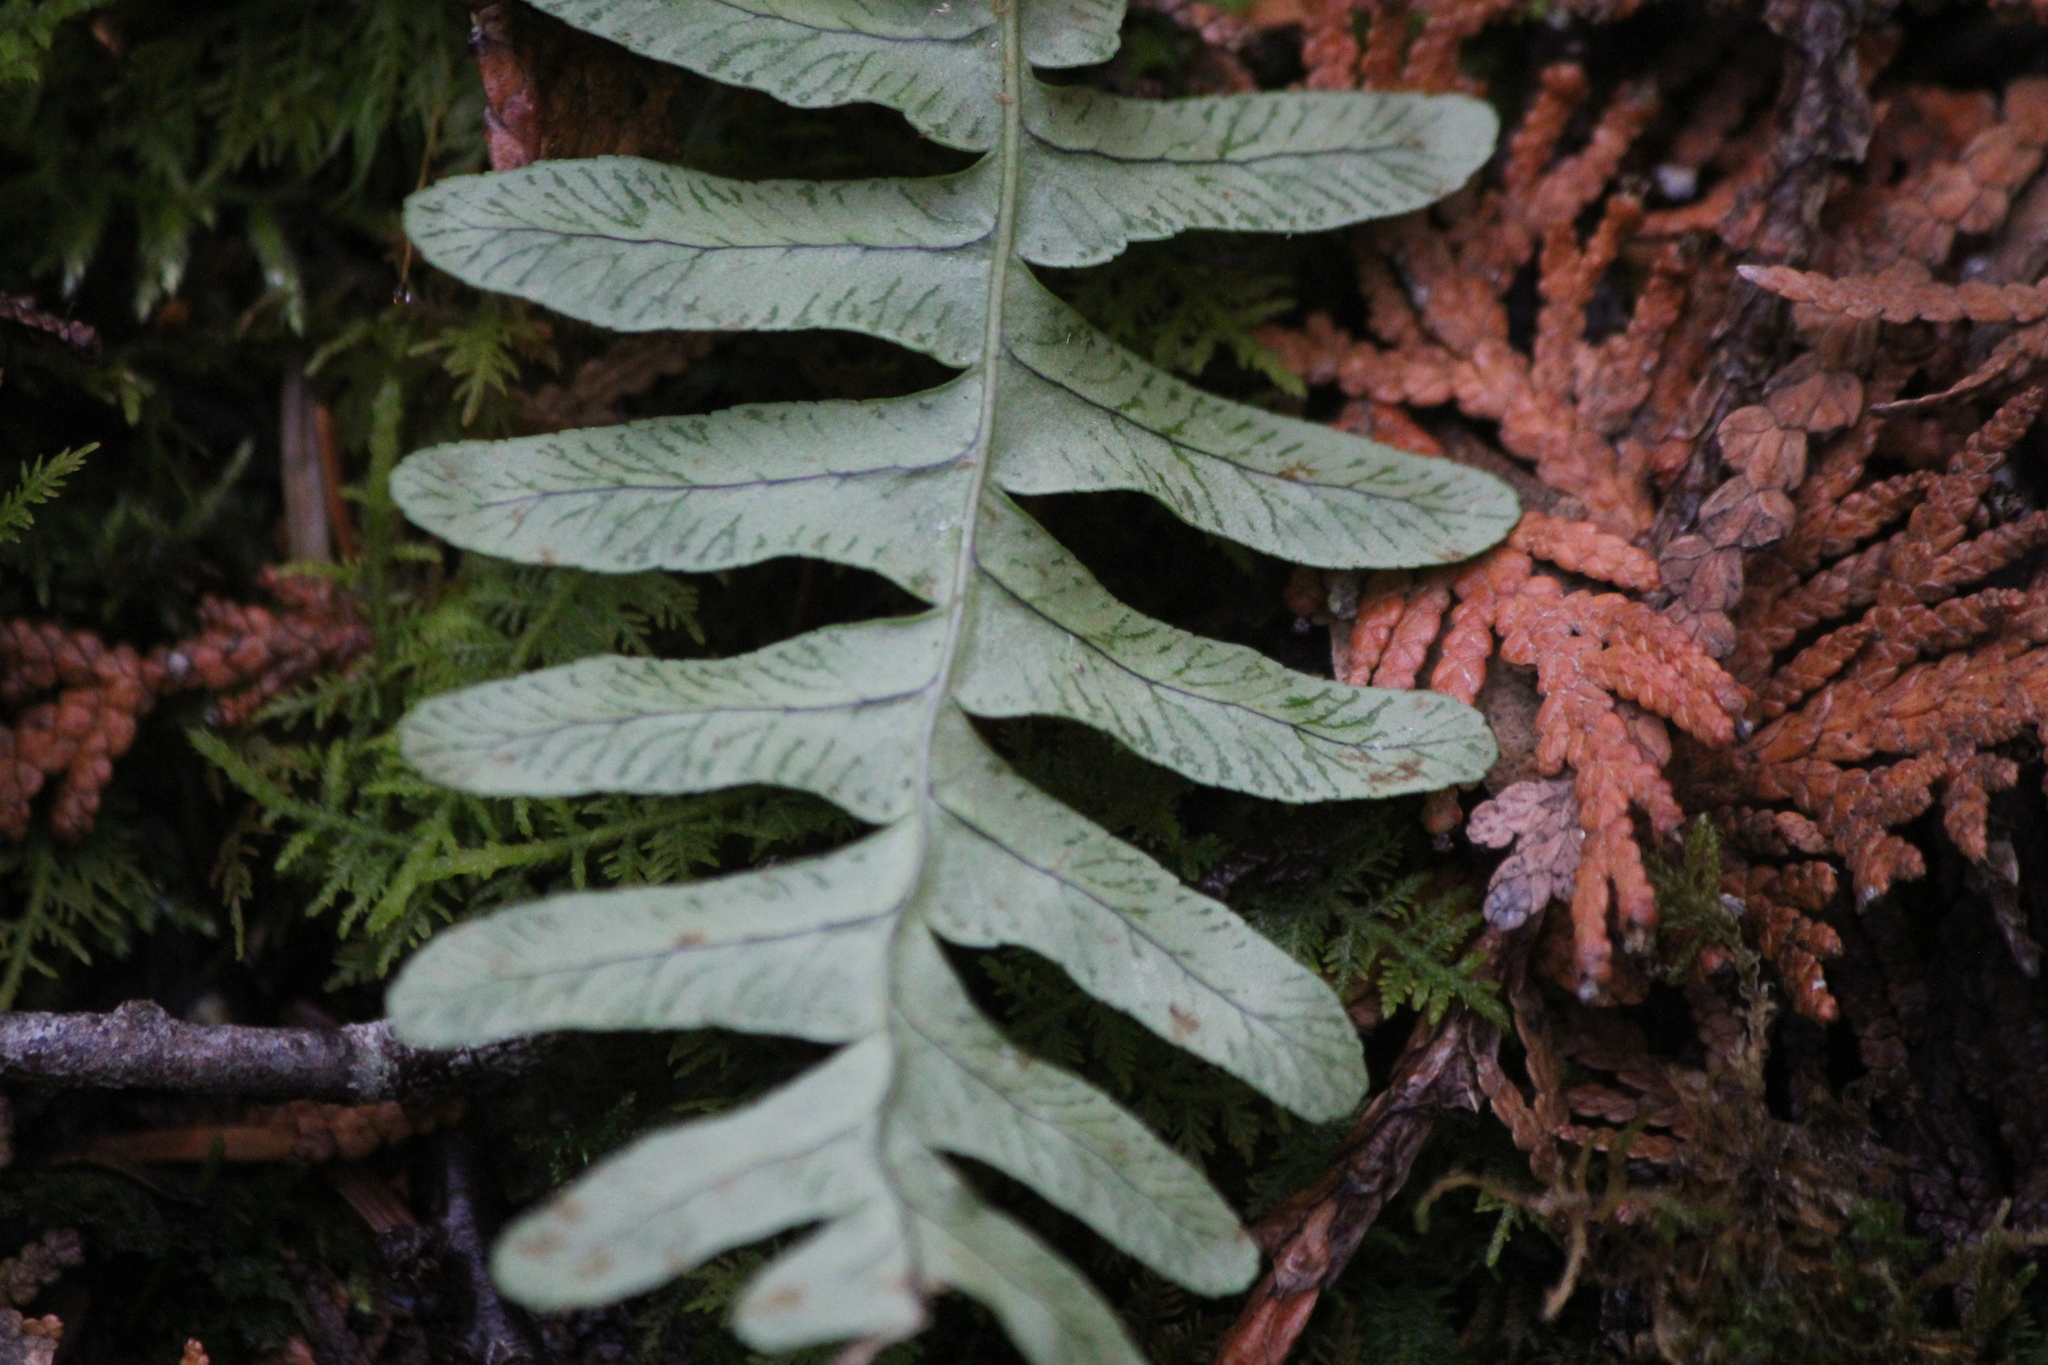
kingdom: Plantae
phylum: Tracheophyta
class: Polypodiopsida
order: Polypodiales
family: Polypodiaceae
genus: Polypodium
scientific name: Polypodium virginianum
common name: American wall fern
